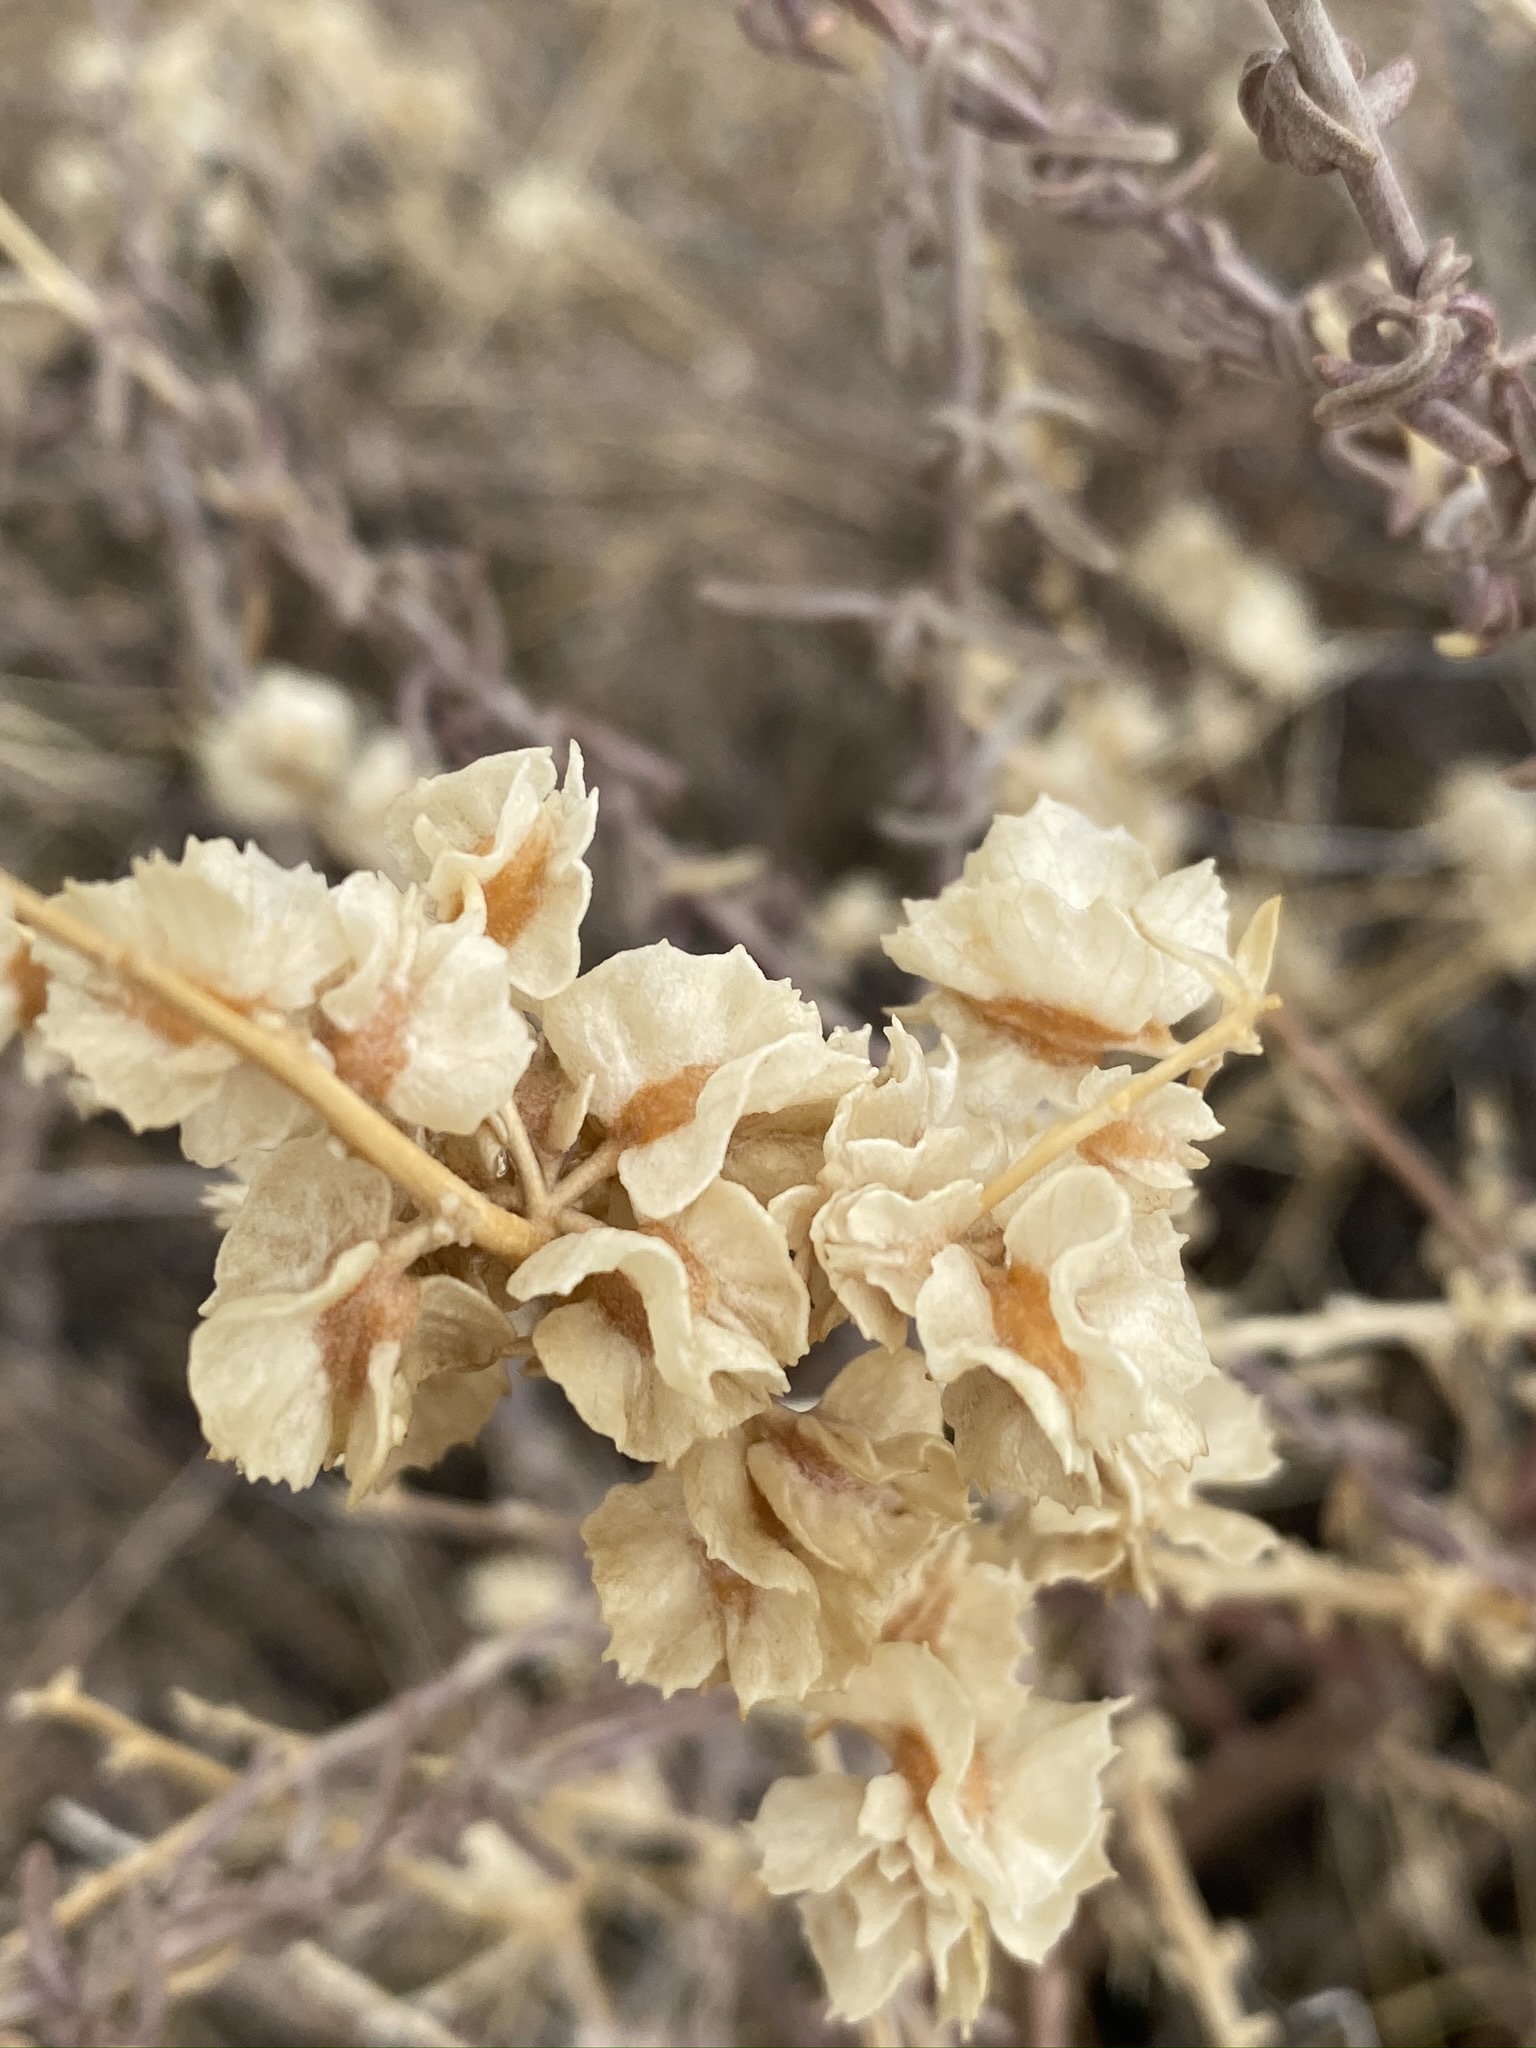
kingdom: Plantae
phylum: Tracheophyta
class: Magnoliopsida
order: Caryophyllales
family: Amaranthaceae
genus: Atriplex
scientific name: Atriplex canescens
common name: Four-wing saltbush
